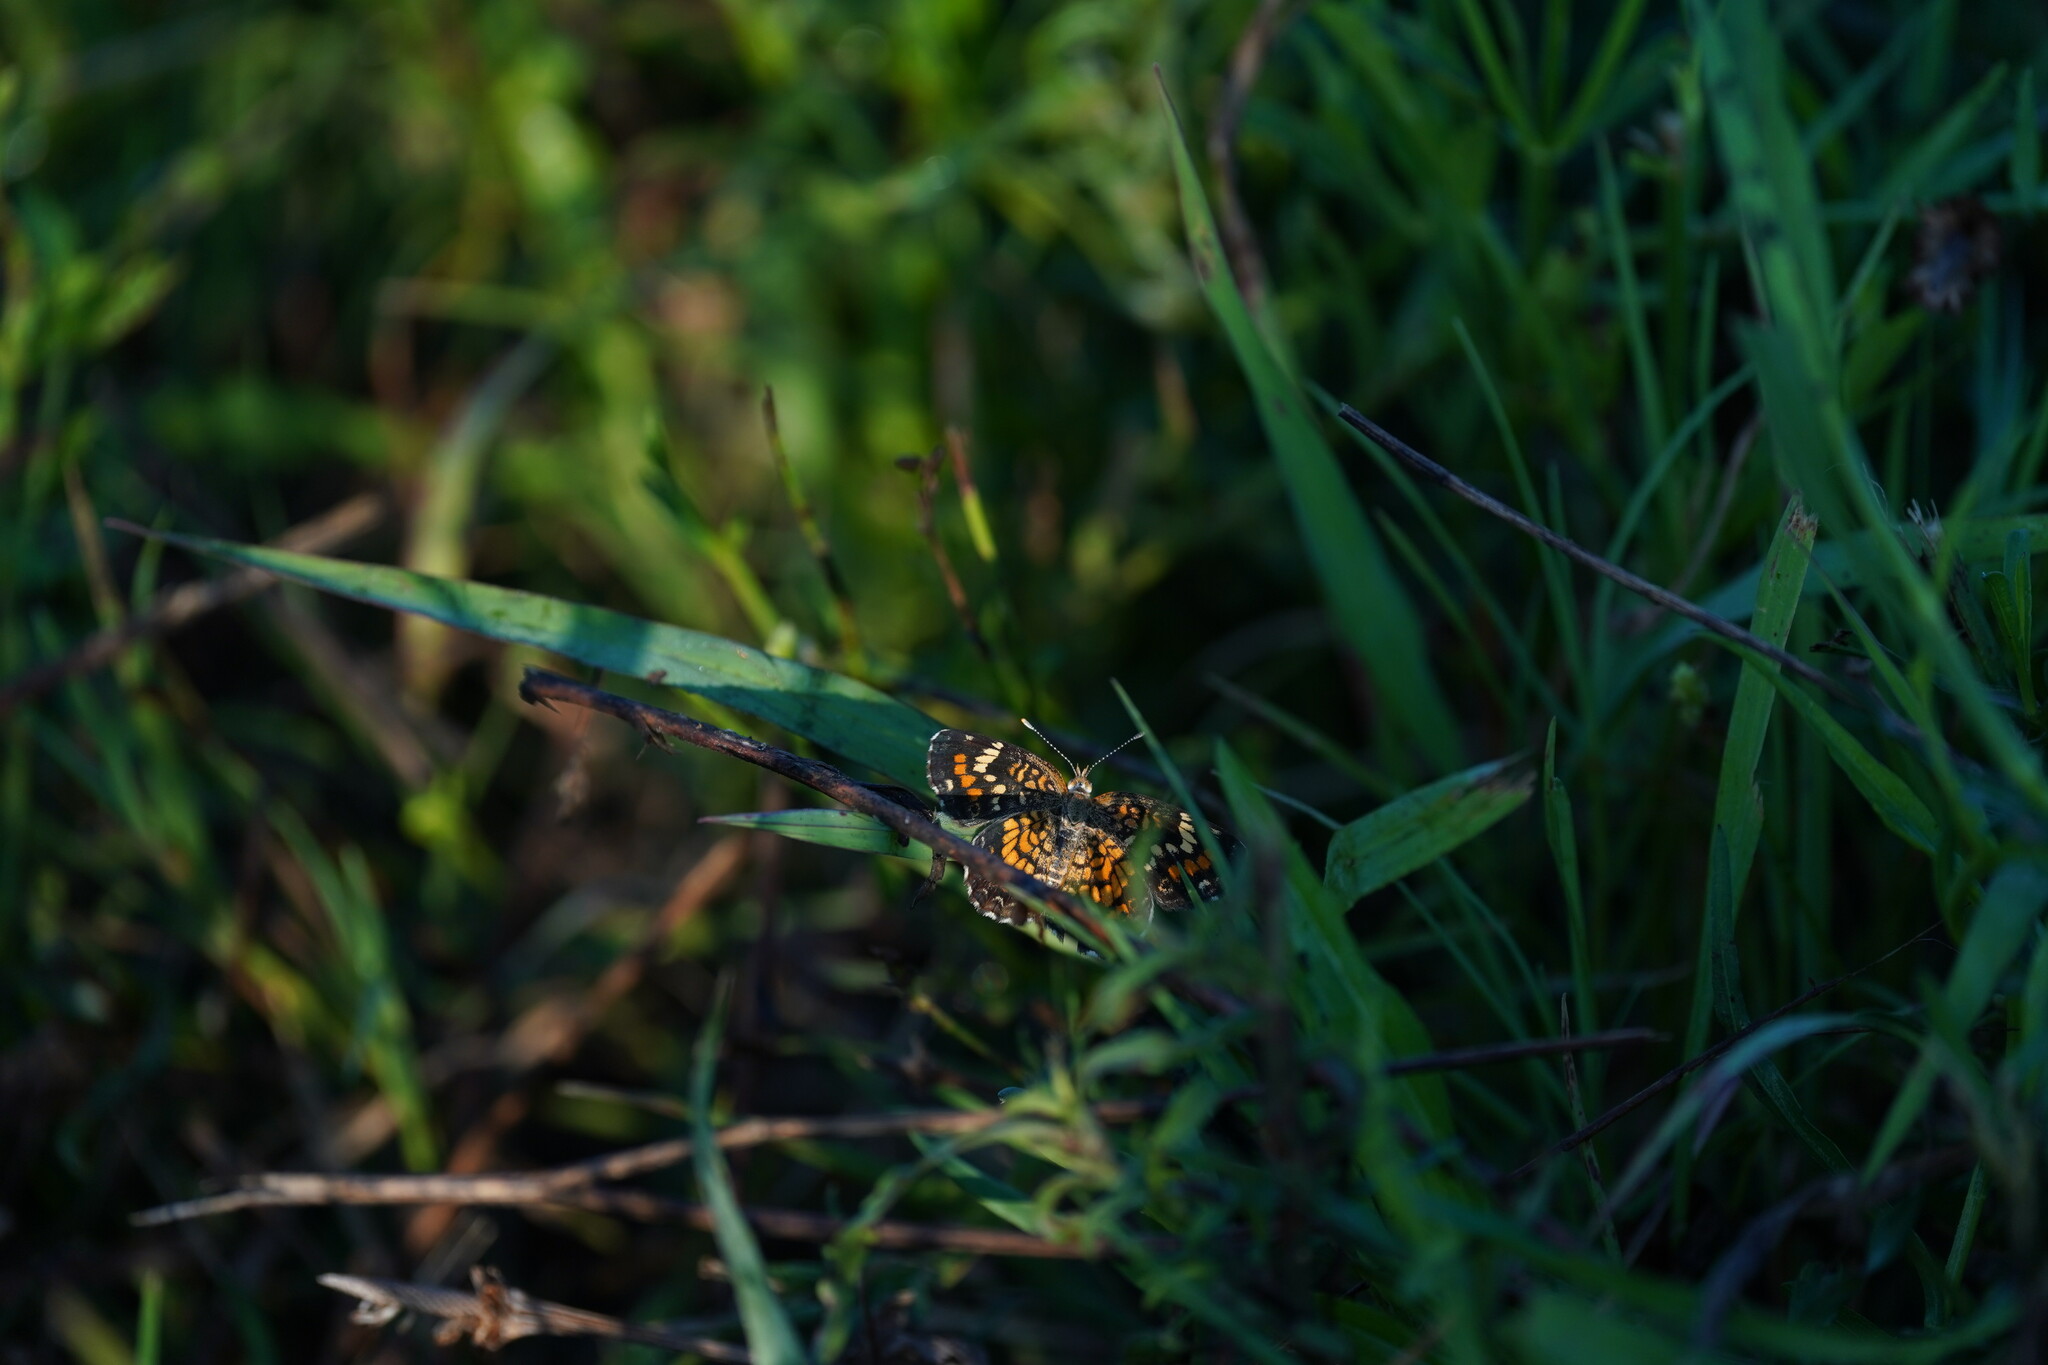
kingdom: Animalia
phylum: Arthropoda
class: Insecta
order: Lepidoptera
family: Nymphalidae
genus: Phyciodes
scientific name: Phyciodes phaon
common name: Phaon crescent
